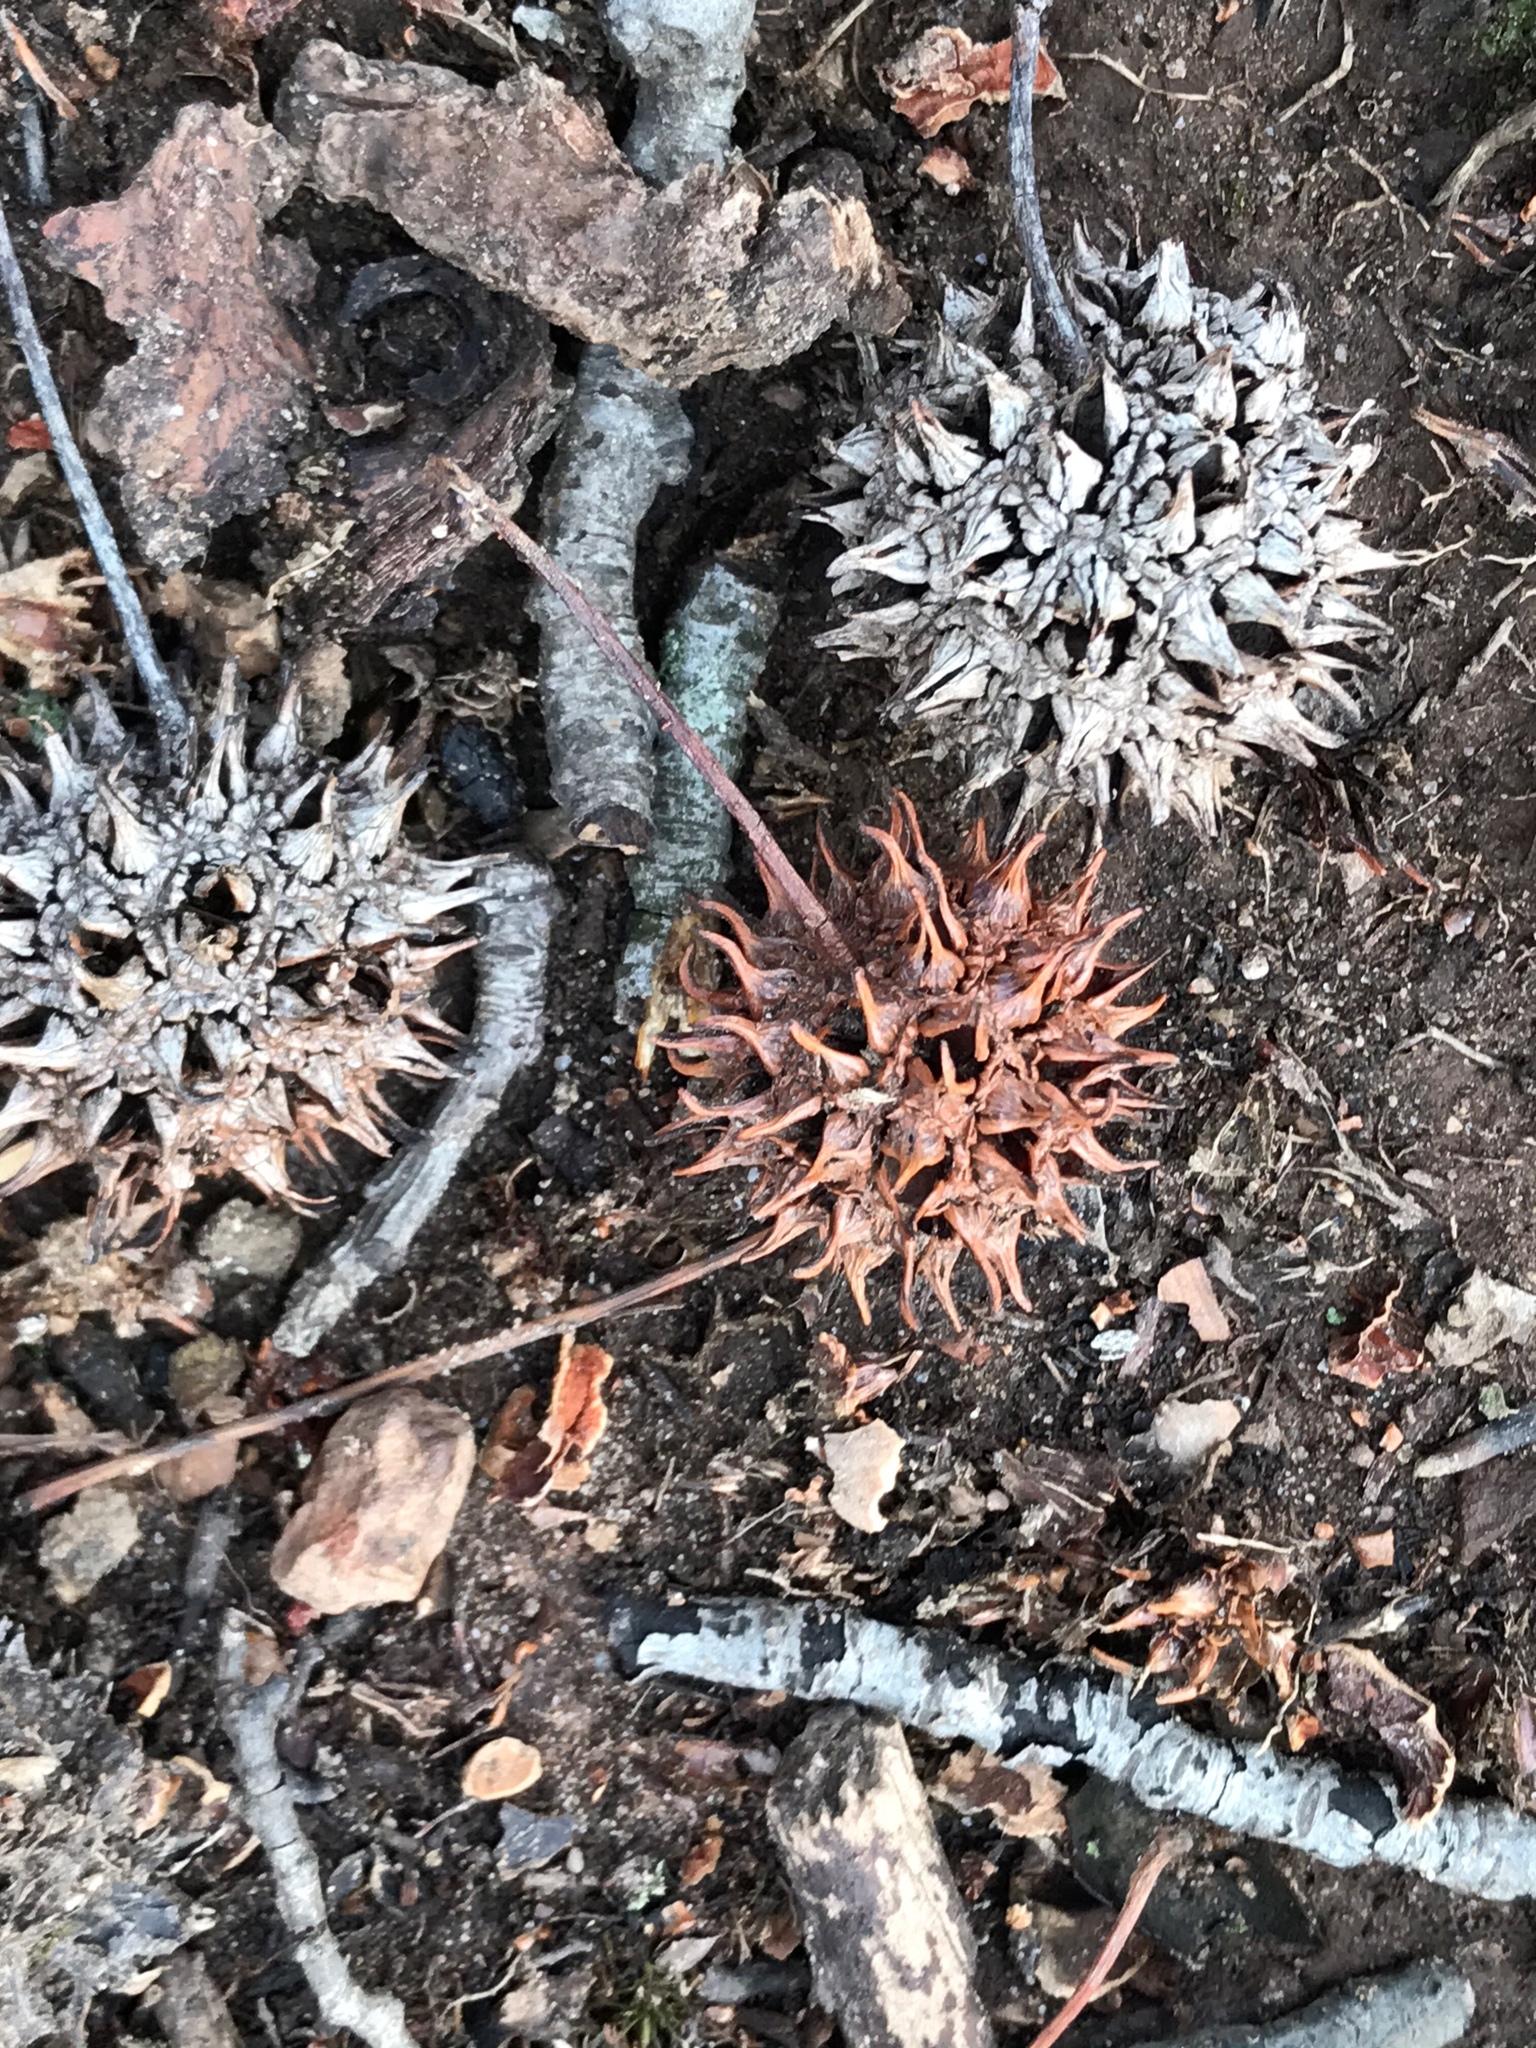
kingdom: Plantae
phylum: Tracheophyta
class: Magnoliopsida
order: Saxifragales
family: Altingiaceae
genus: Liquidambar
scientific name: Liquidambar styraciflua
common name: Sweet gum
